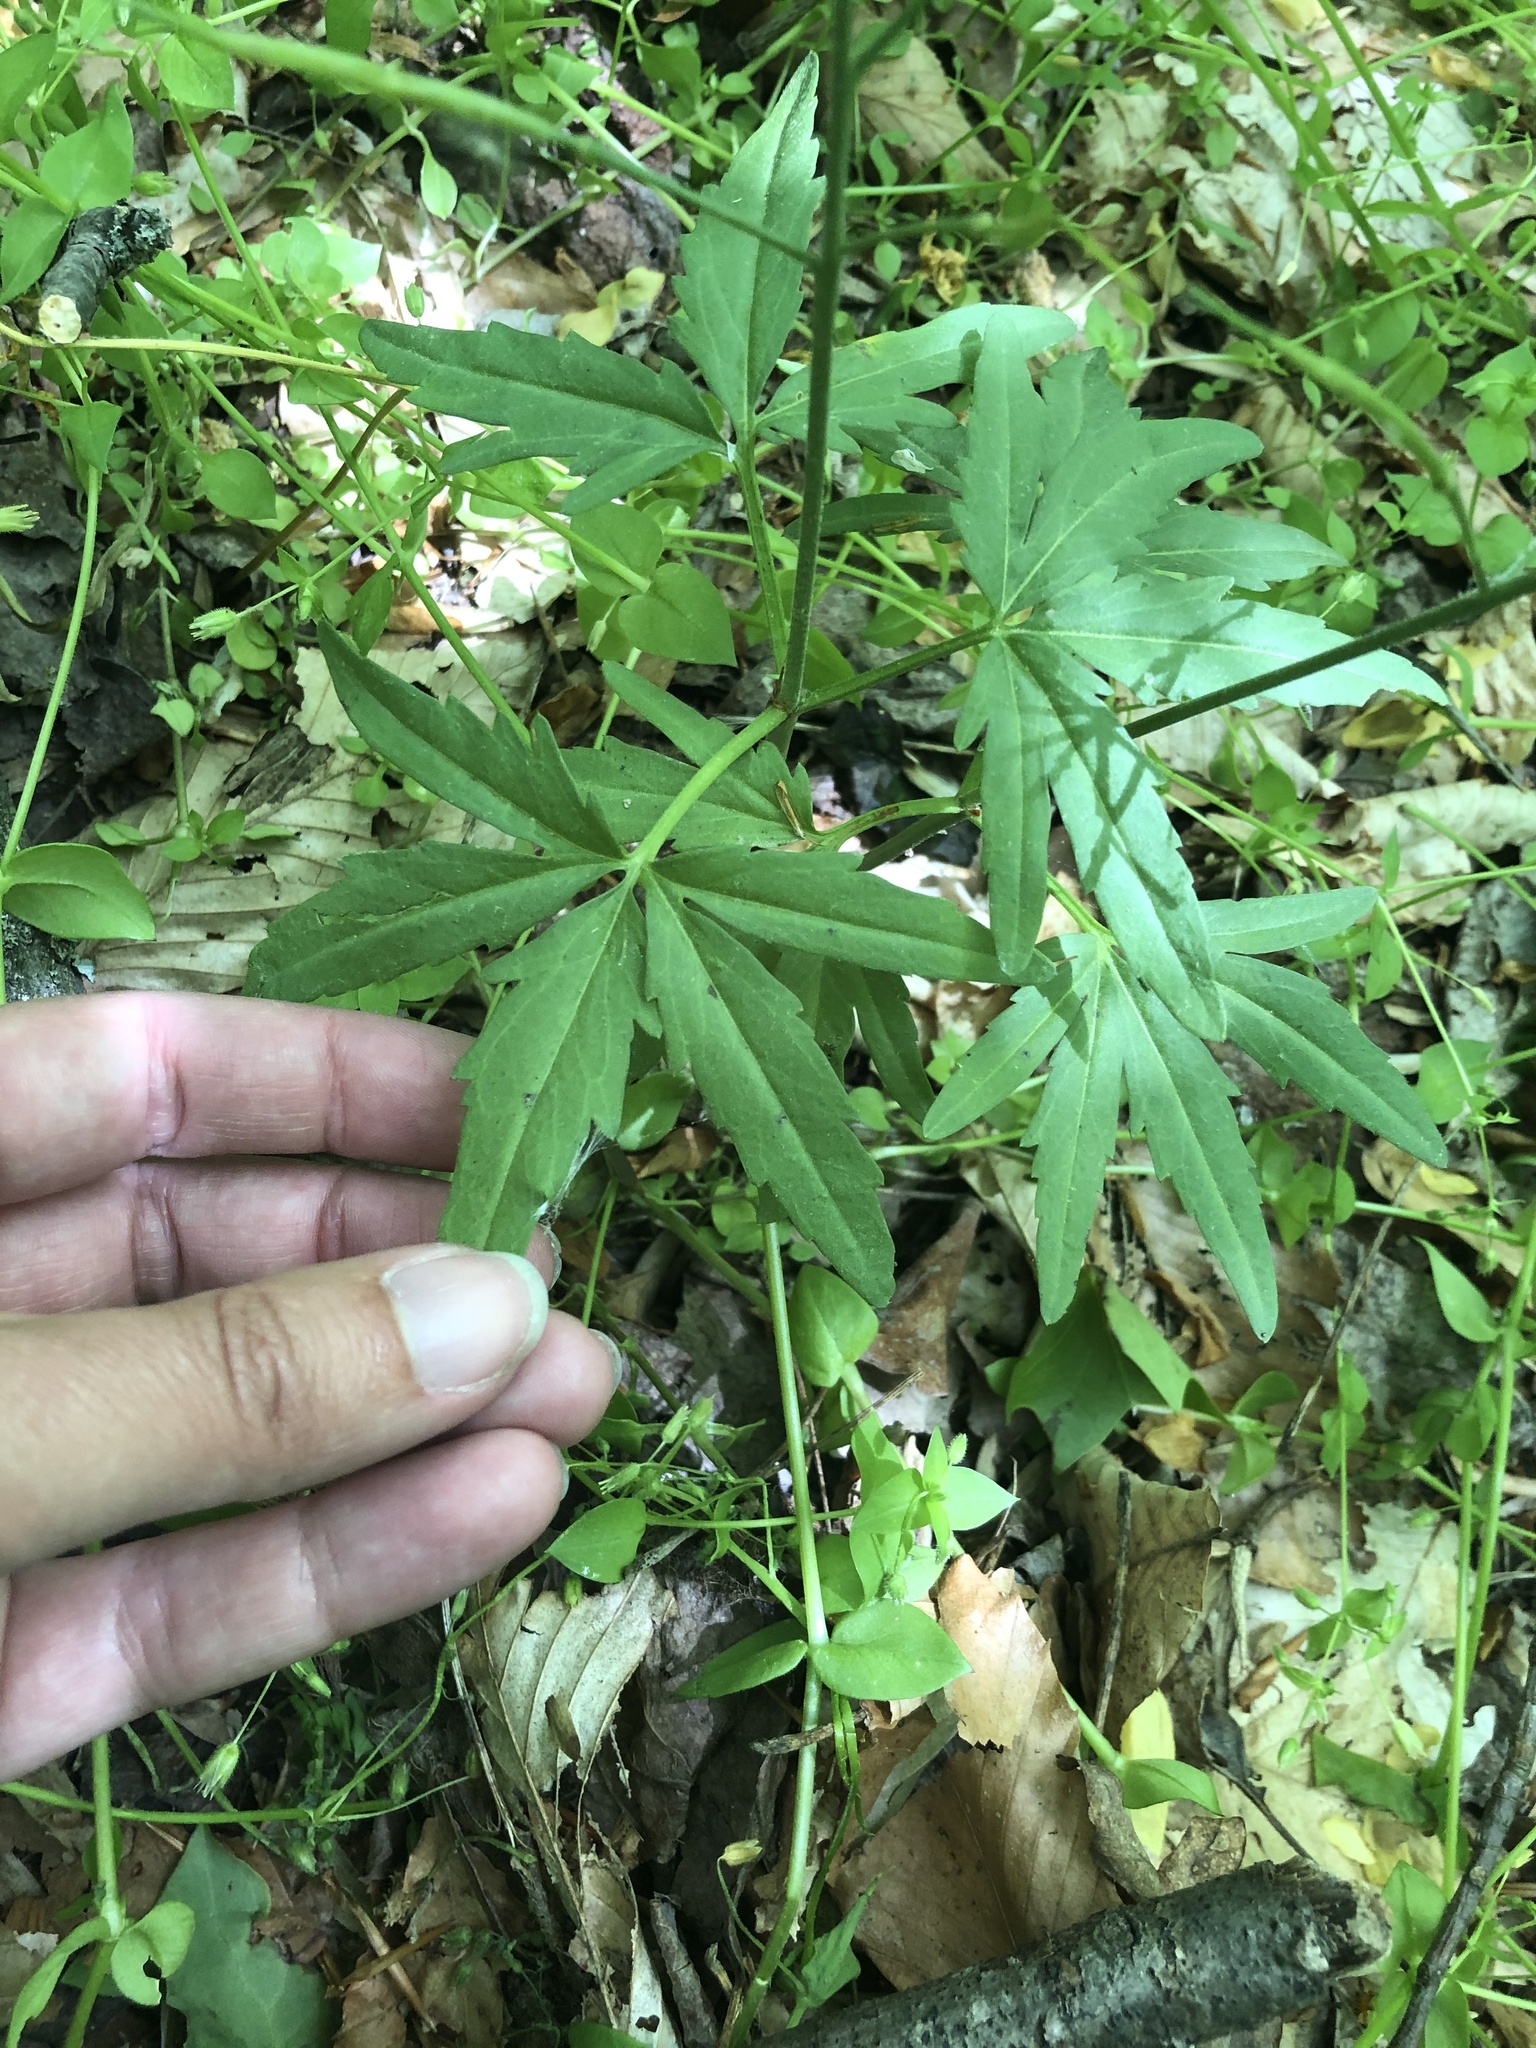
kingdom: Plantae
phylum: Tracheophyta
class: Magnoliopsida
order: Brassicales
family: Brassicaceae
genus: Cardamine
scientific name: Cardamine concatenata
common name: Cut-leaf toothcup
